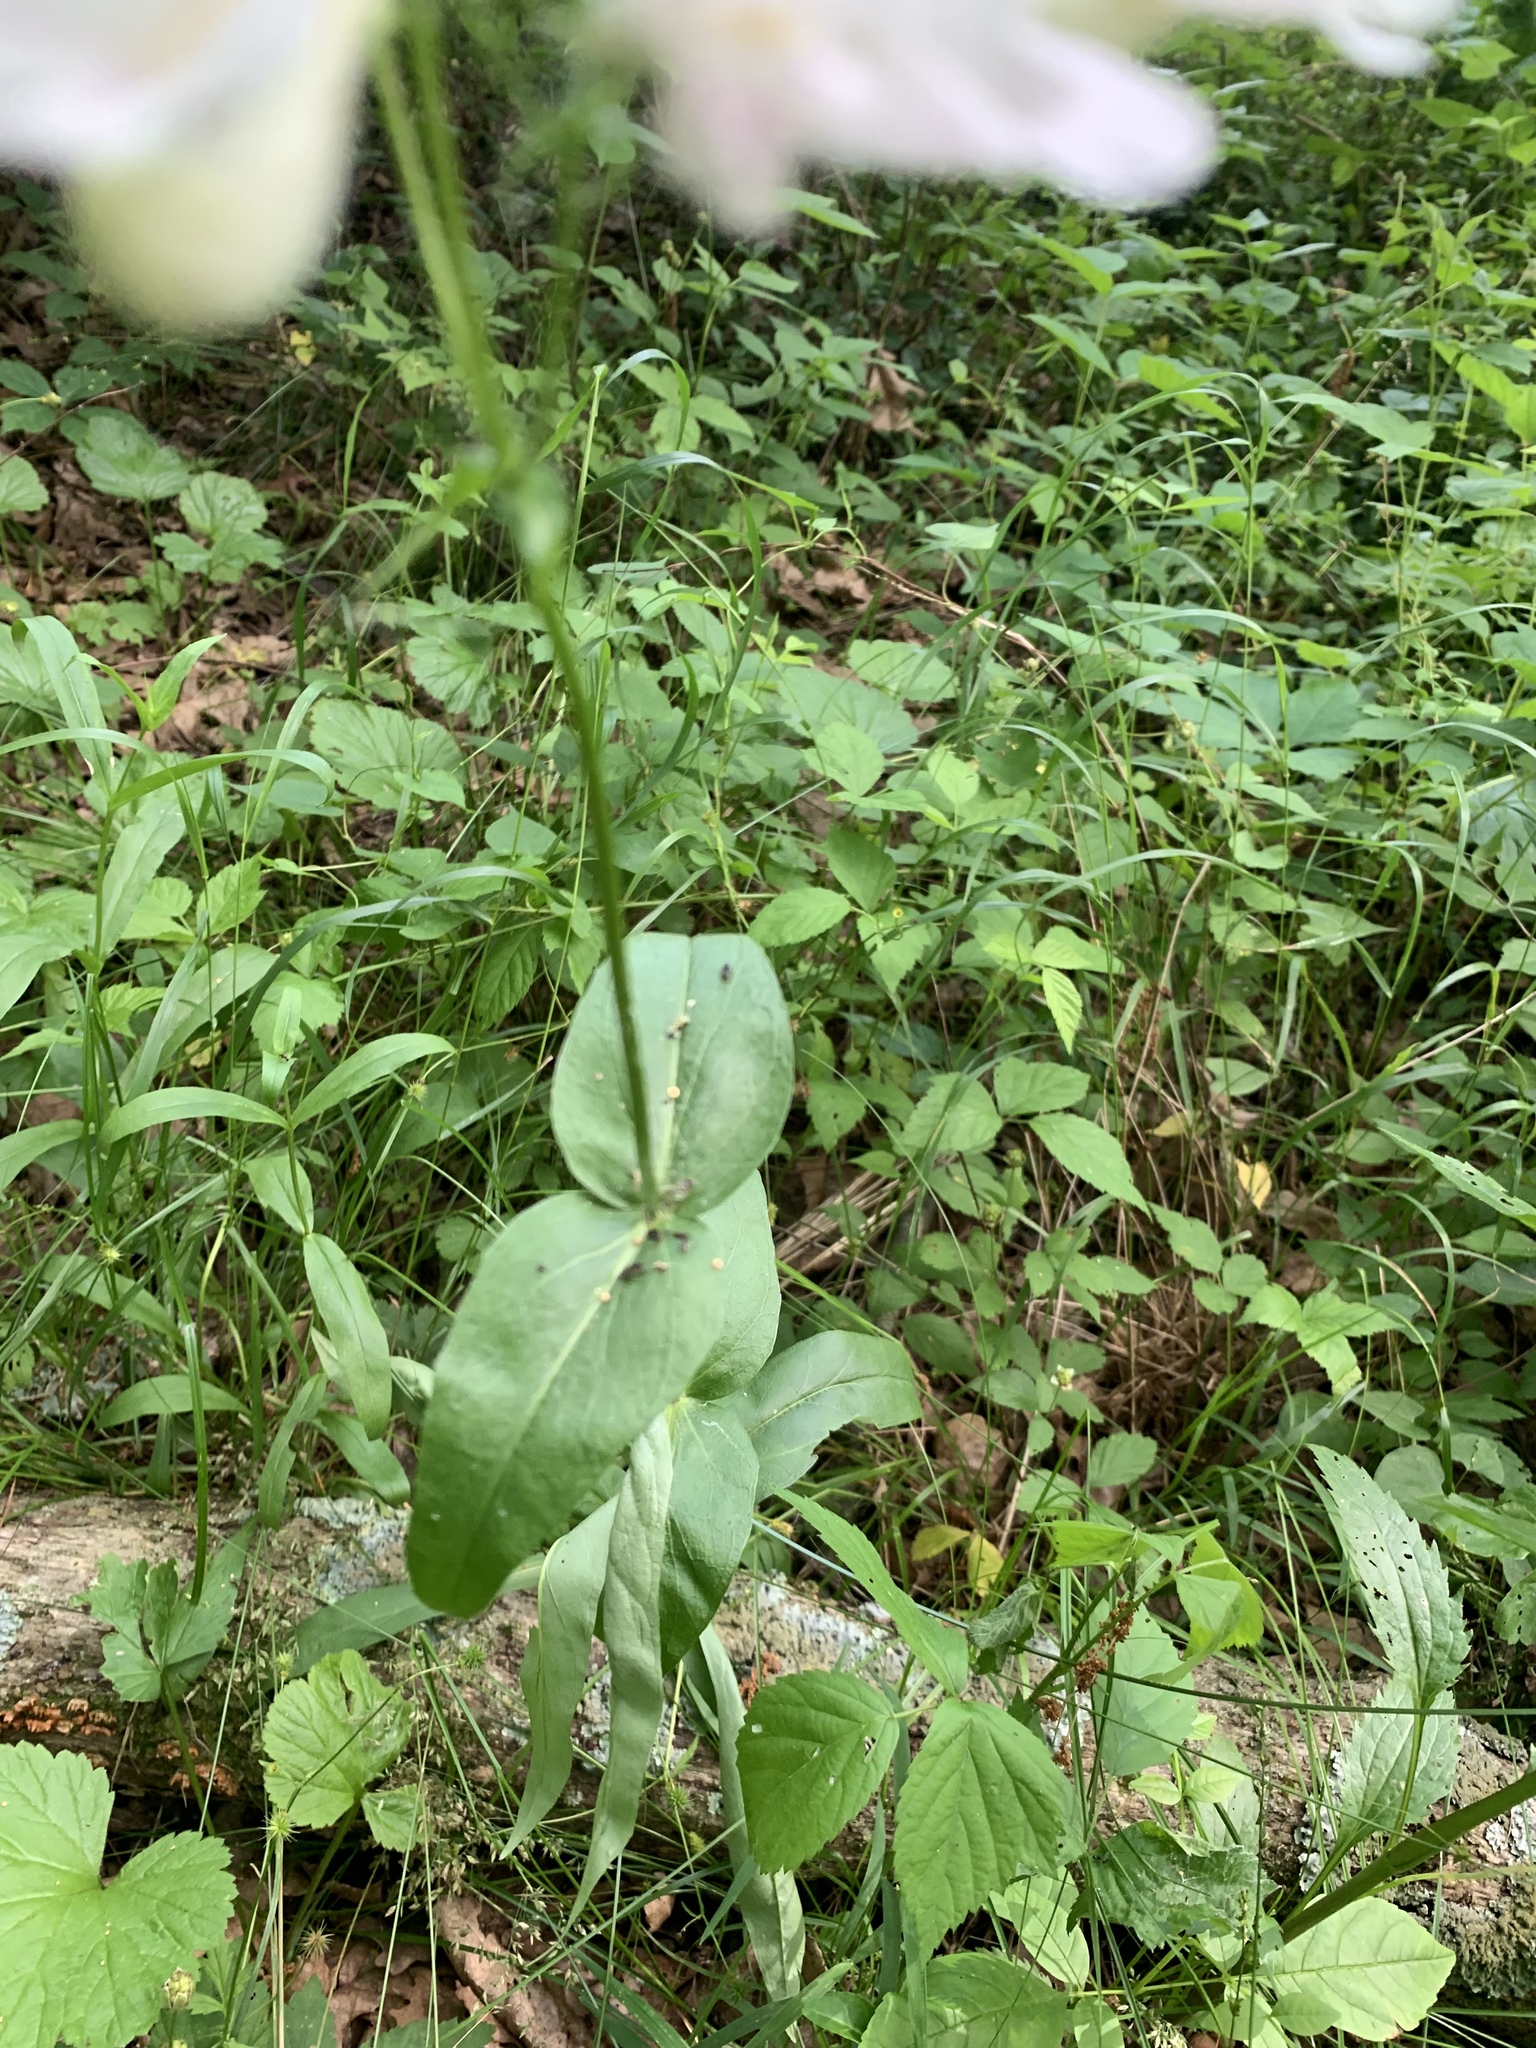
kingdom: Plantae
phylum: Tracheophyta
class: Magnoliopsida
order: Lamiales
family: Plantaginaceae
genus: Penstemon
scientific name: Penstemon digitalis
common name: Foxglove beardtongue
